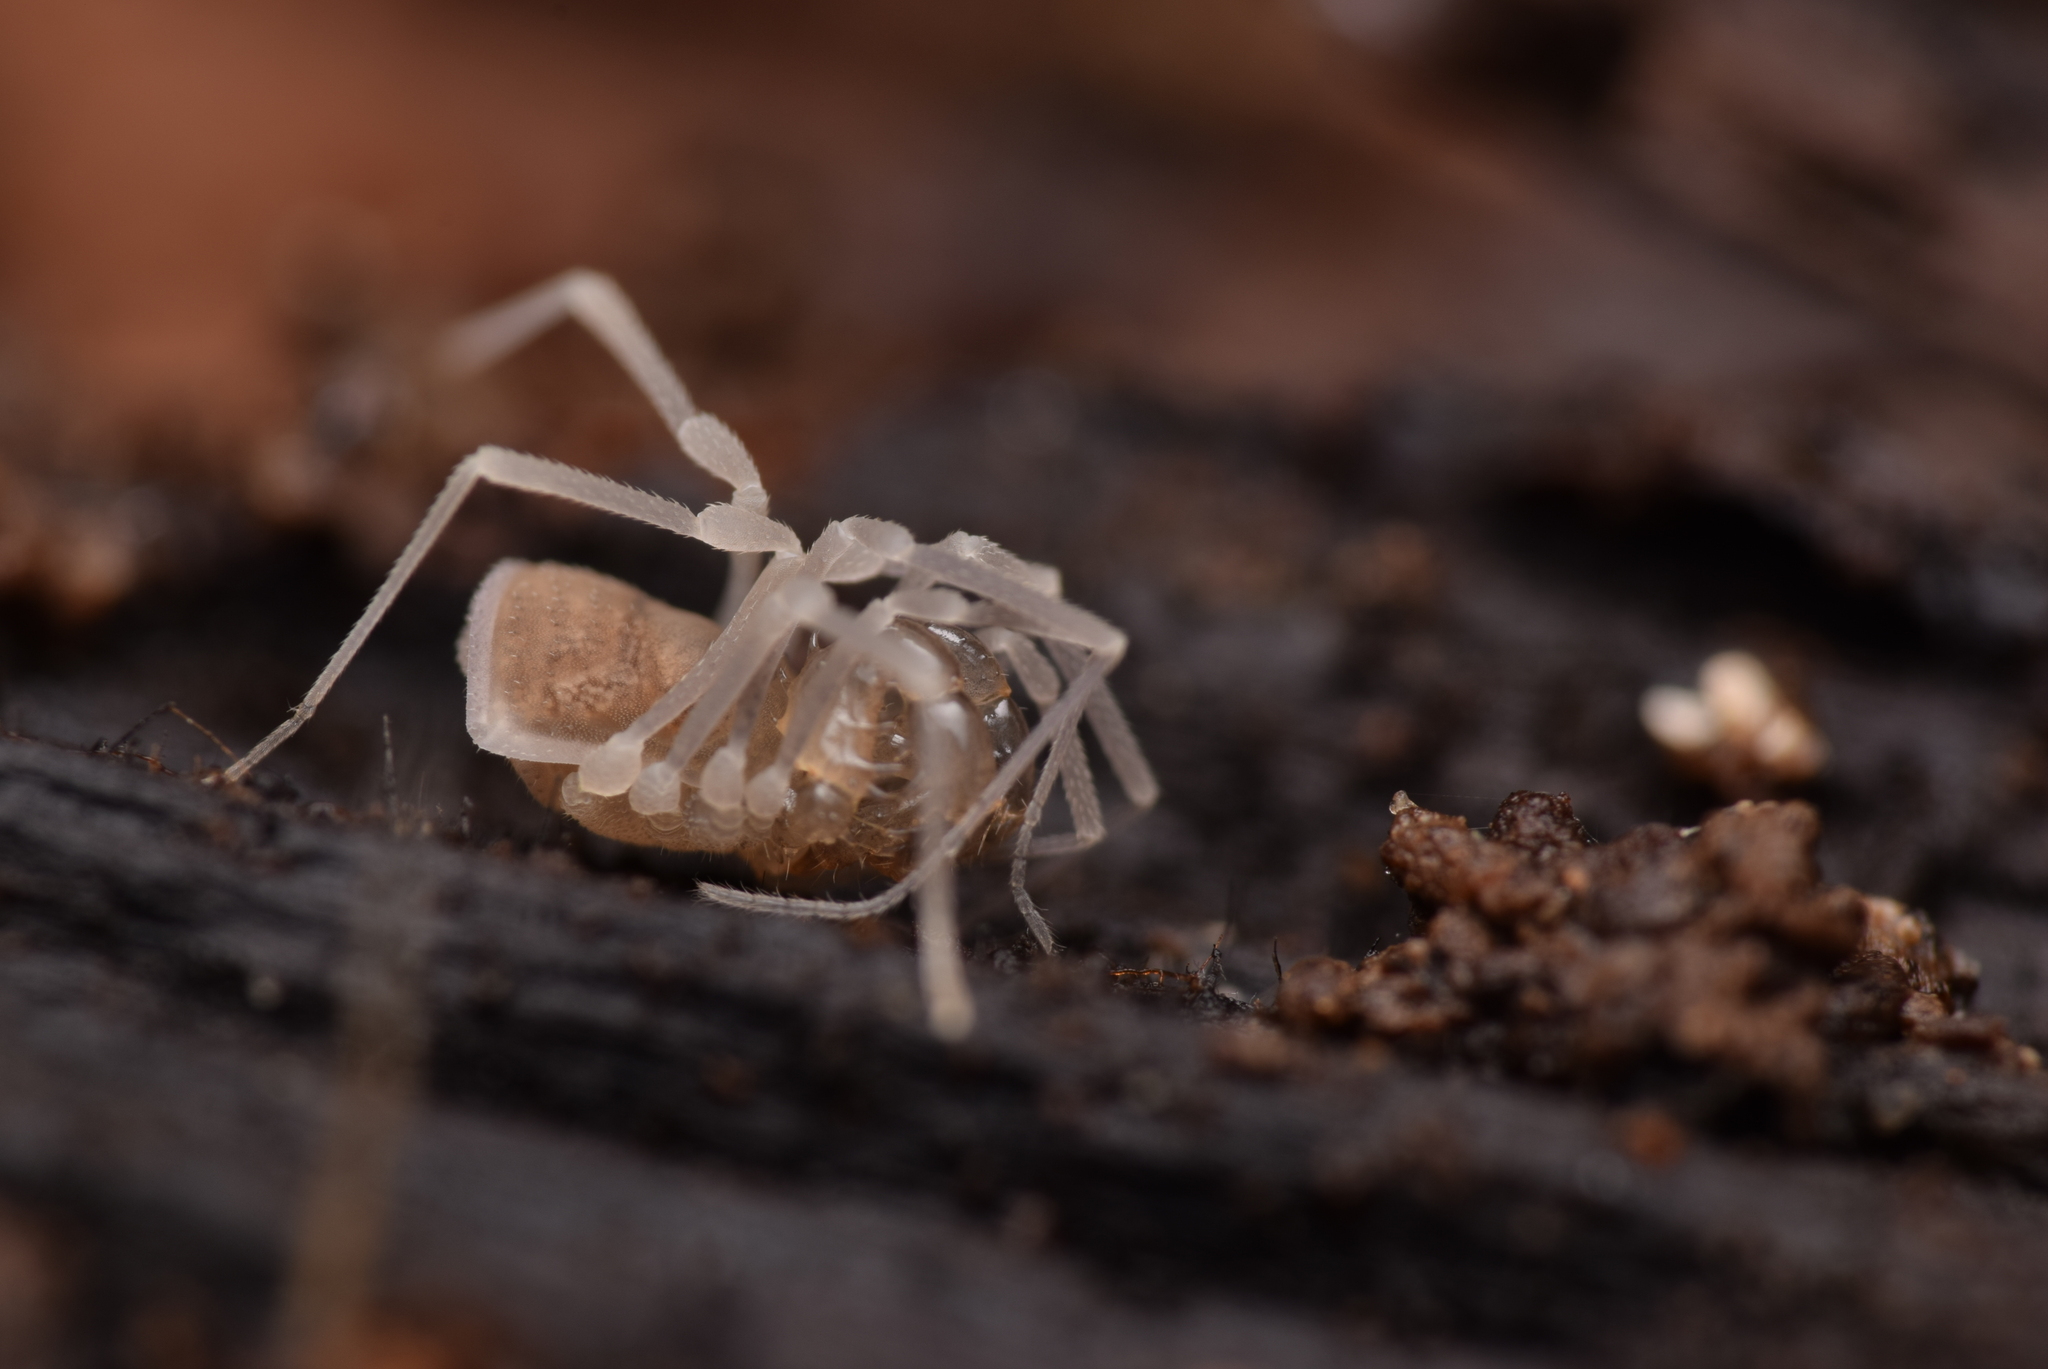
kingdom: Animalia
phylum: Arthropoda
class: Arachnida
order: Opiliones
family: Cladonychiidae
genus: Holoscotolemon
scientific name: Holoscotolemon querilhaci
